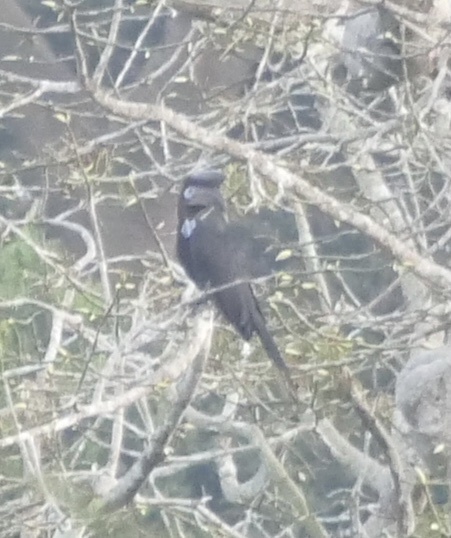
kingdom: Animalia
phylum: Chordata
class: Aves
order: Bucerotiformes
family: Bucerotidae
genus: Ceratogymna
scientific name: Ceratogymna atrata
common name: Black-casqued hornbill
